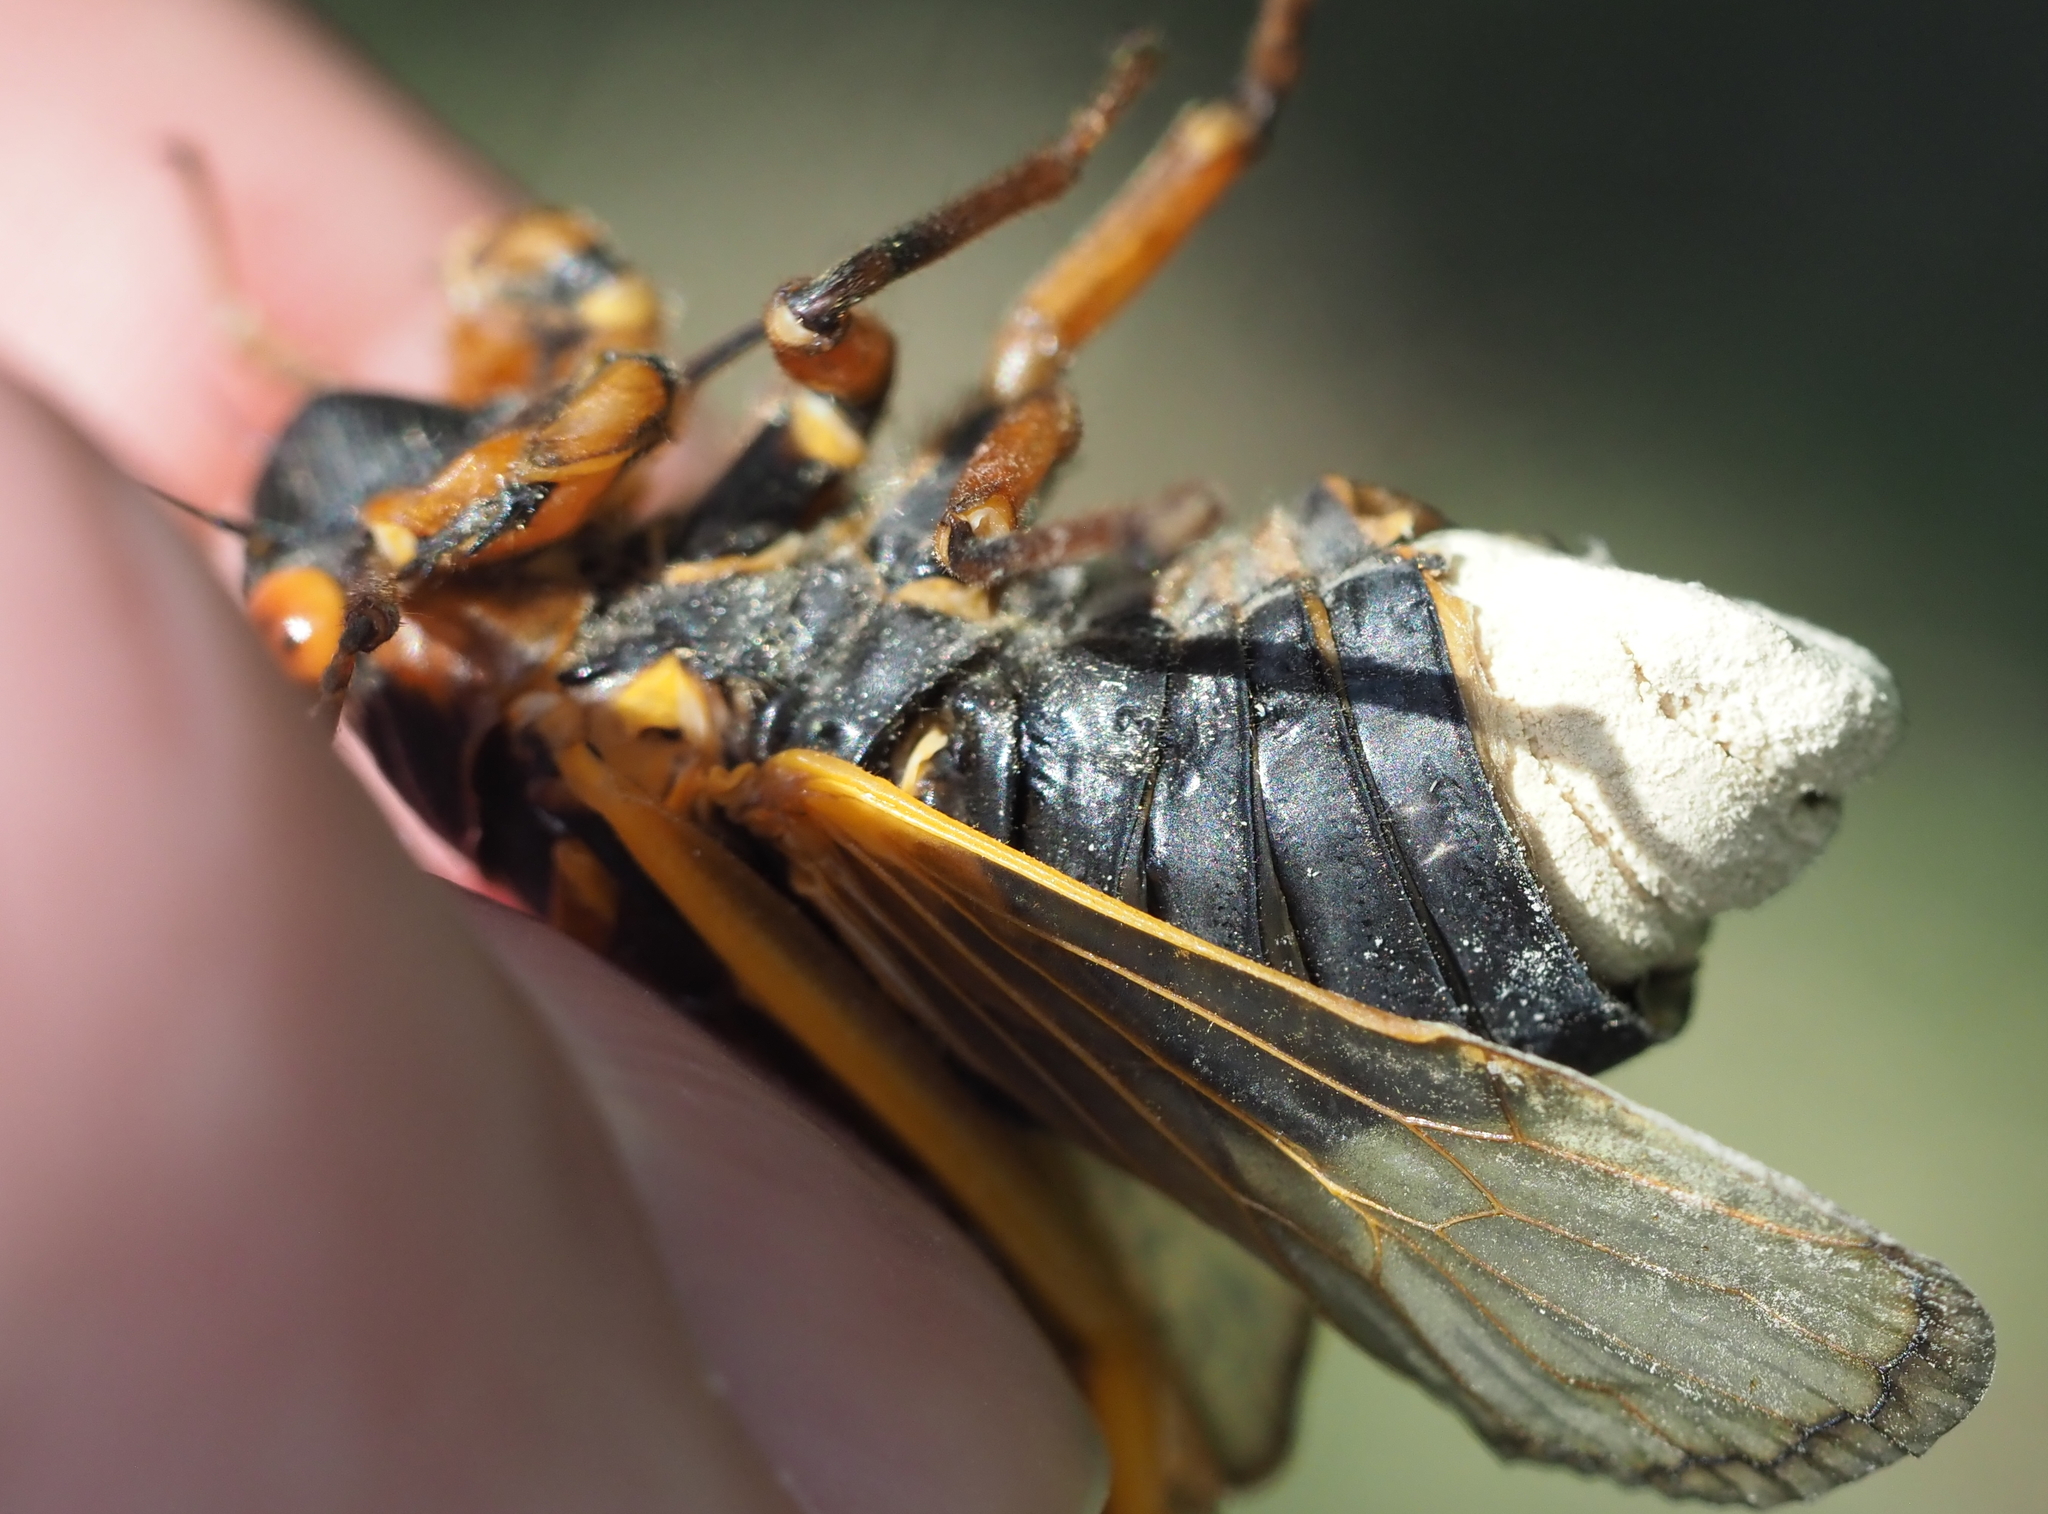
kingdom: Fungi
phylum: Entomophthoromycota
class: Entomophthoromycetes
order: Entomophthorales
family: Entomophthoraceae
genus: Massospora
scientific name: Massospora cicadina
